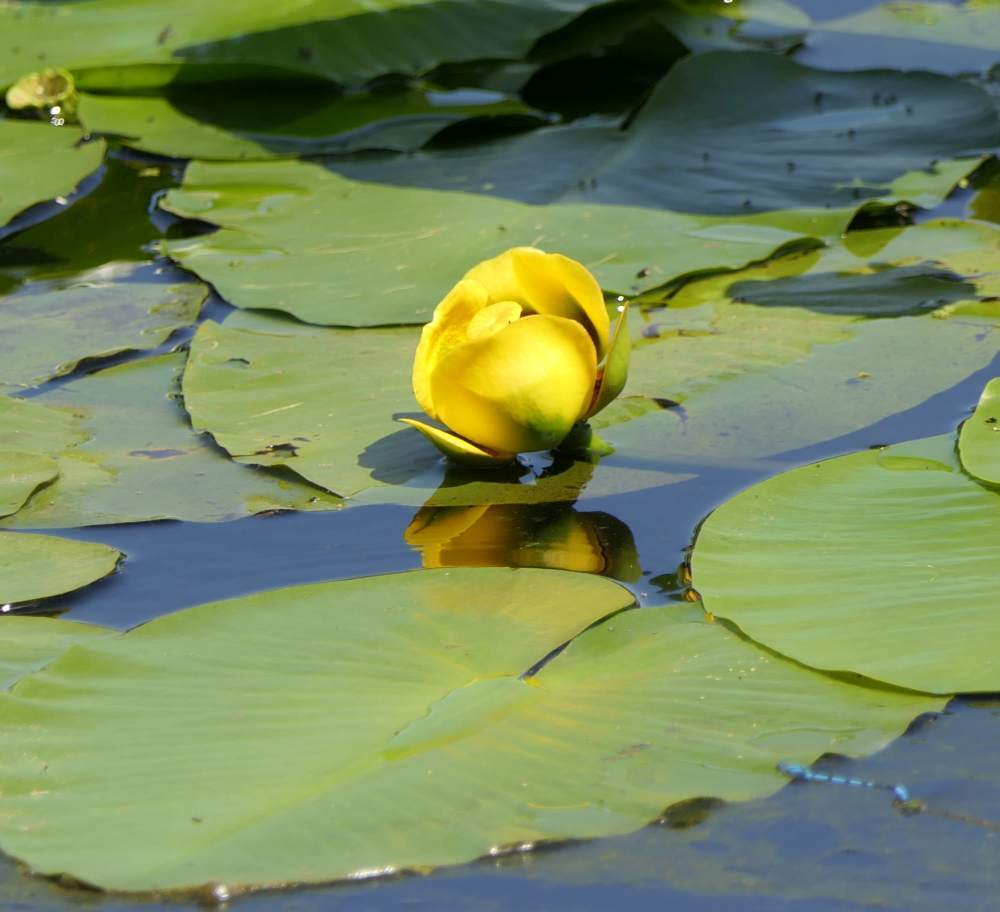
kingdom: Plantae
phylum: Tracheophyta
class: Magnoliopsida
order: Nymphaeales
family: Nymphaeaceae
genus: Nuphar
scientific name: Nuphar variegata
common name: Beaver-root
